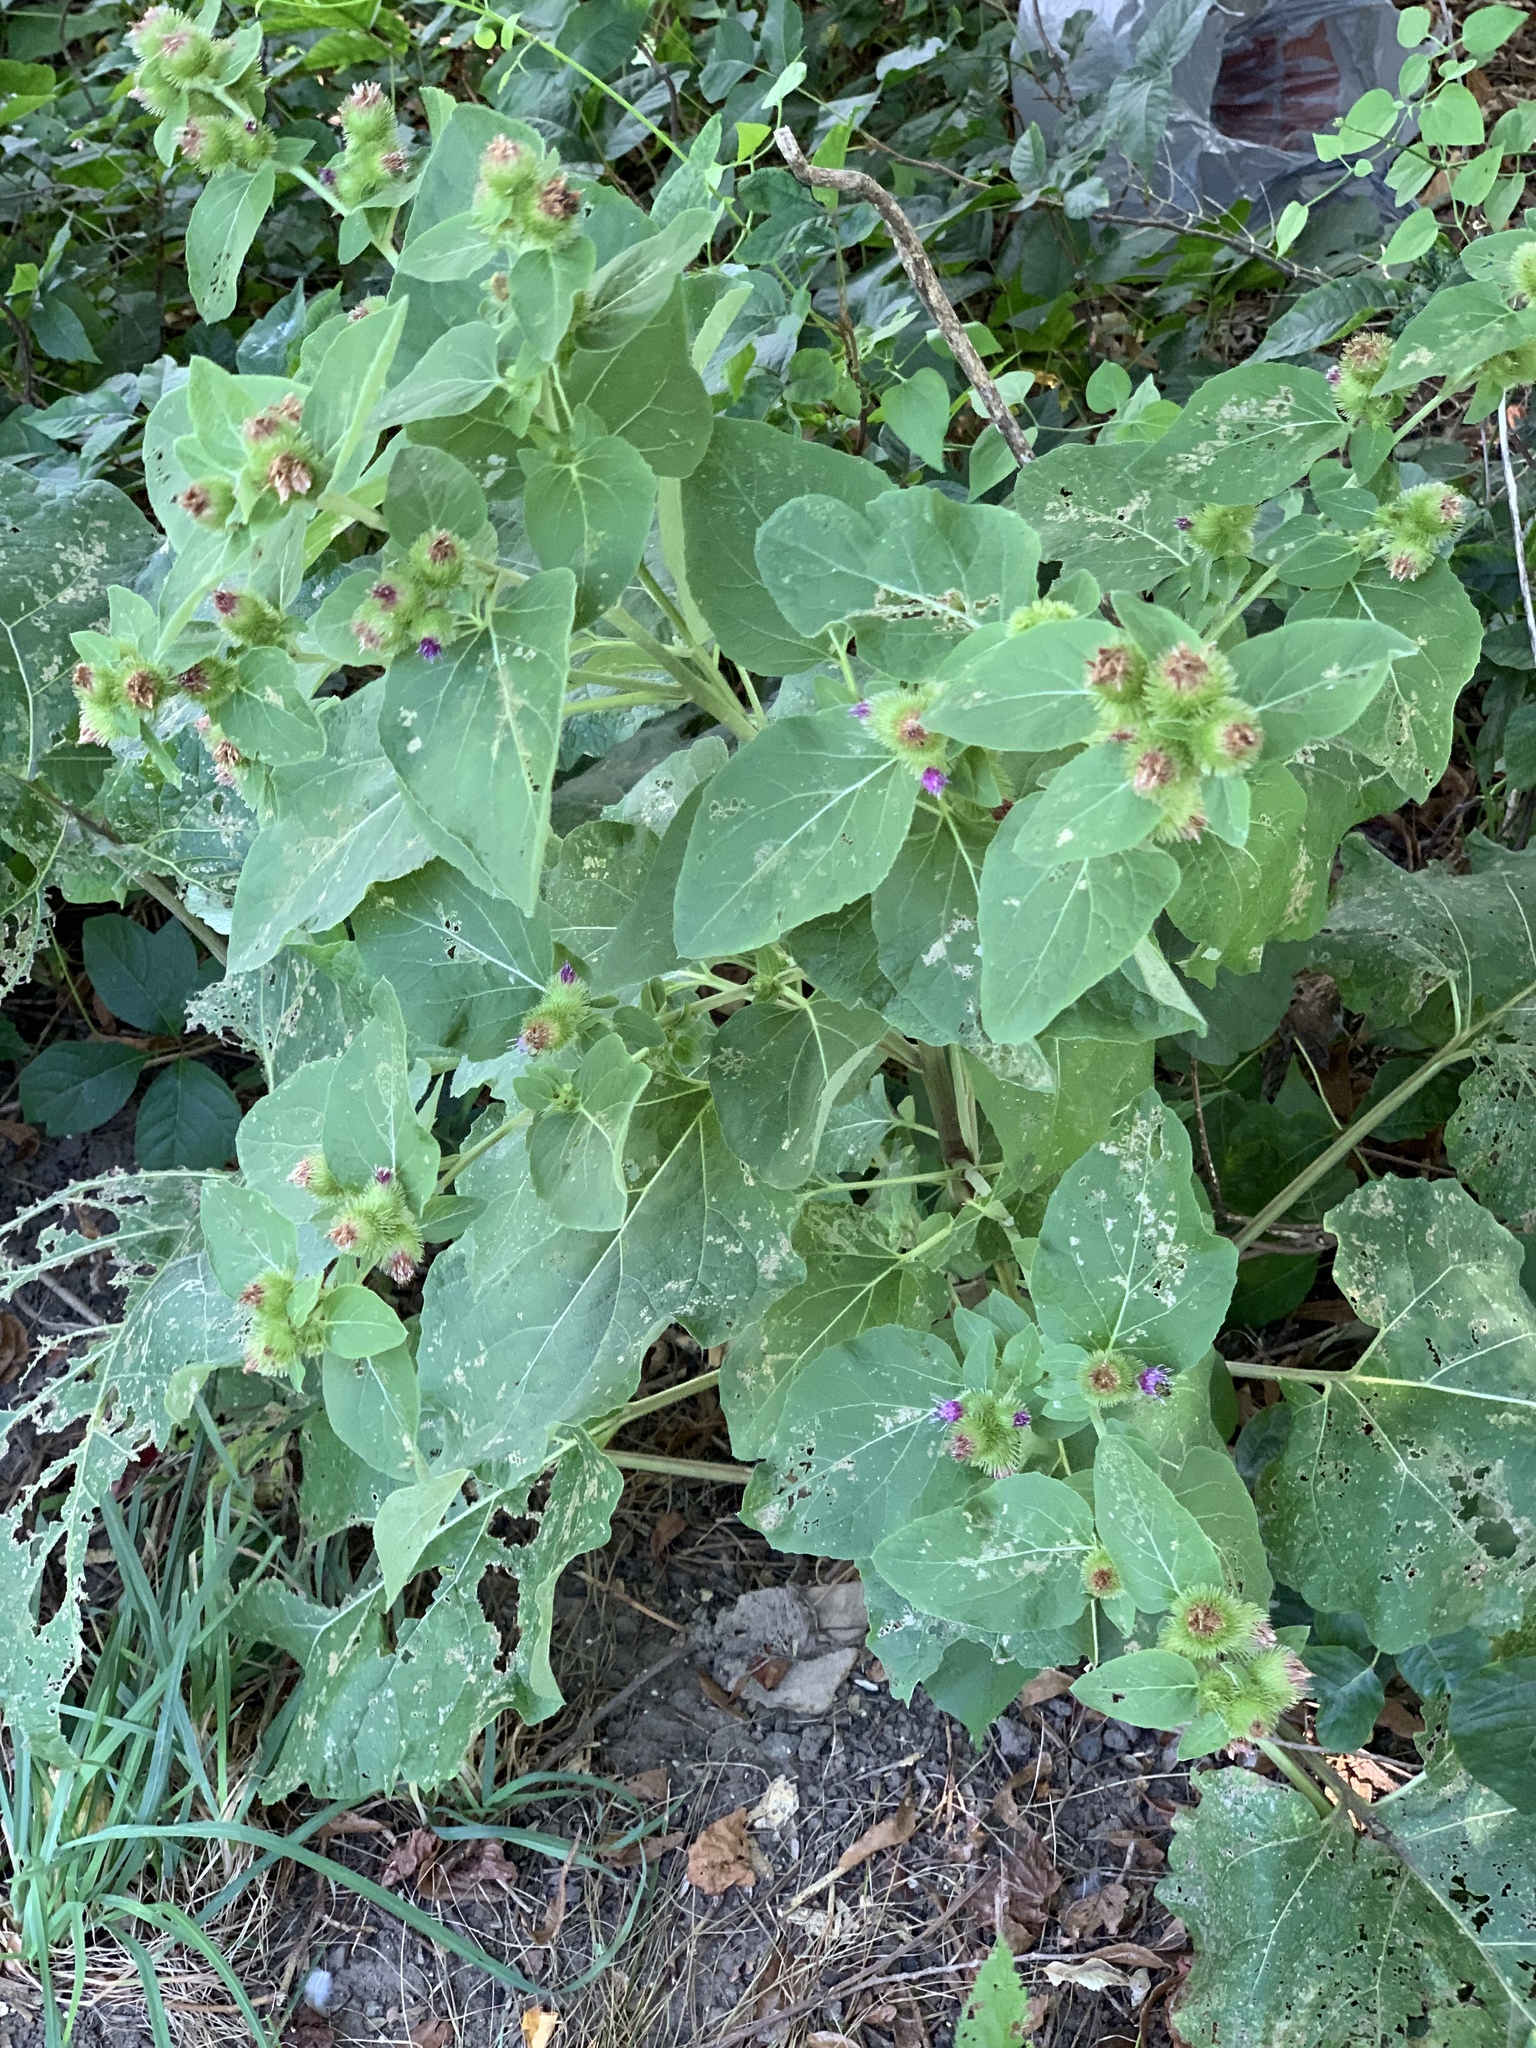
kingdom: Plantae
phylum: Tracheophyta
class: Magnoliopsida
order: Asterales
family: Asteraceae
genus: Arctium
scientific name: Arctium minus
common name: Lesser burdock
